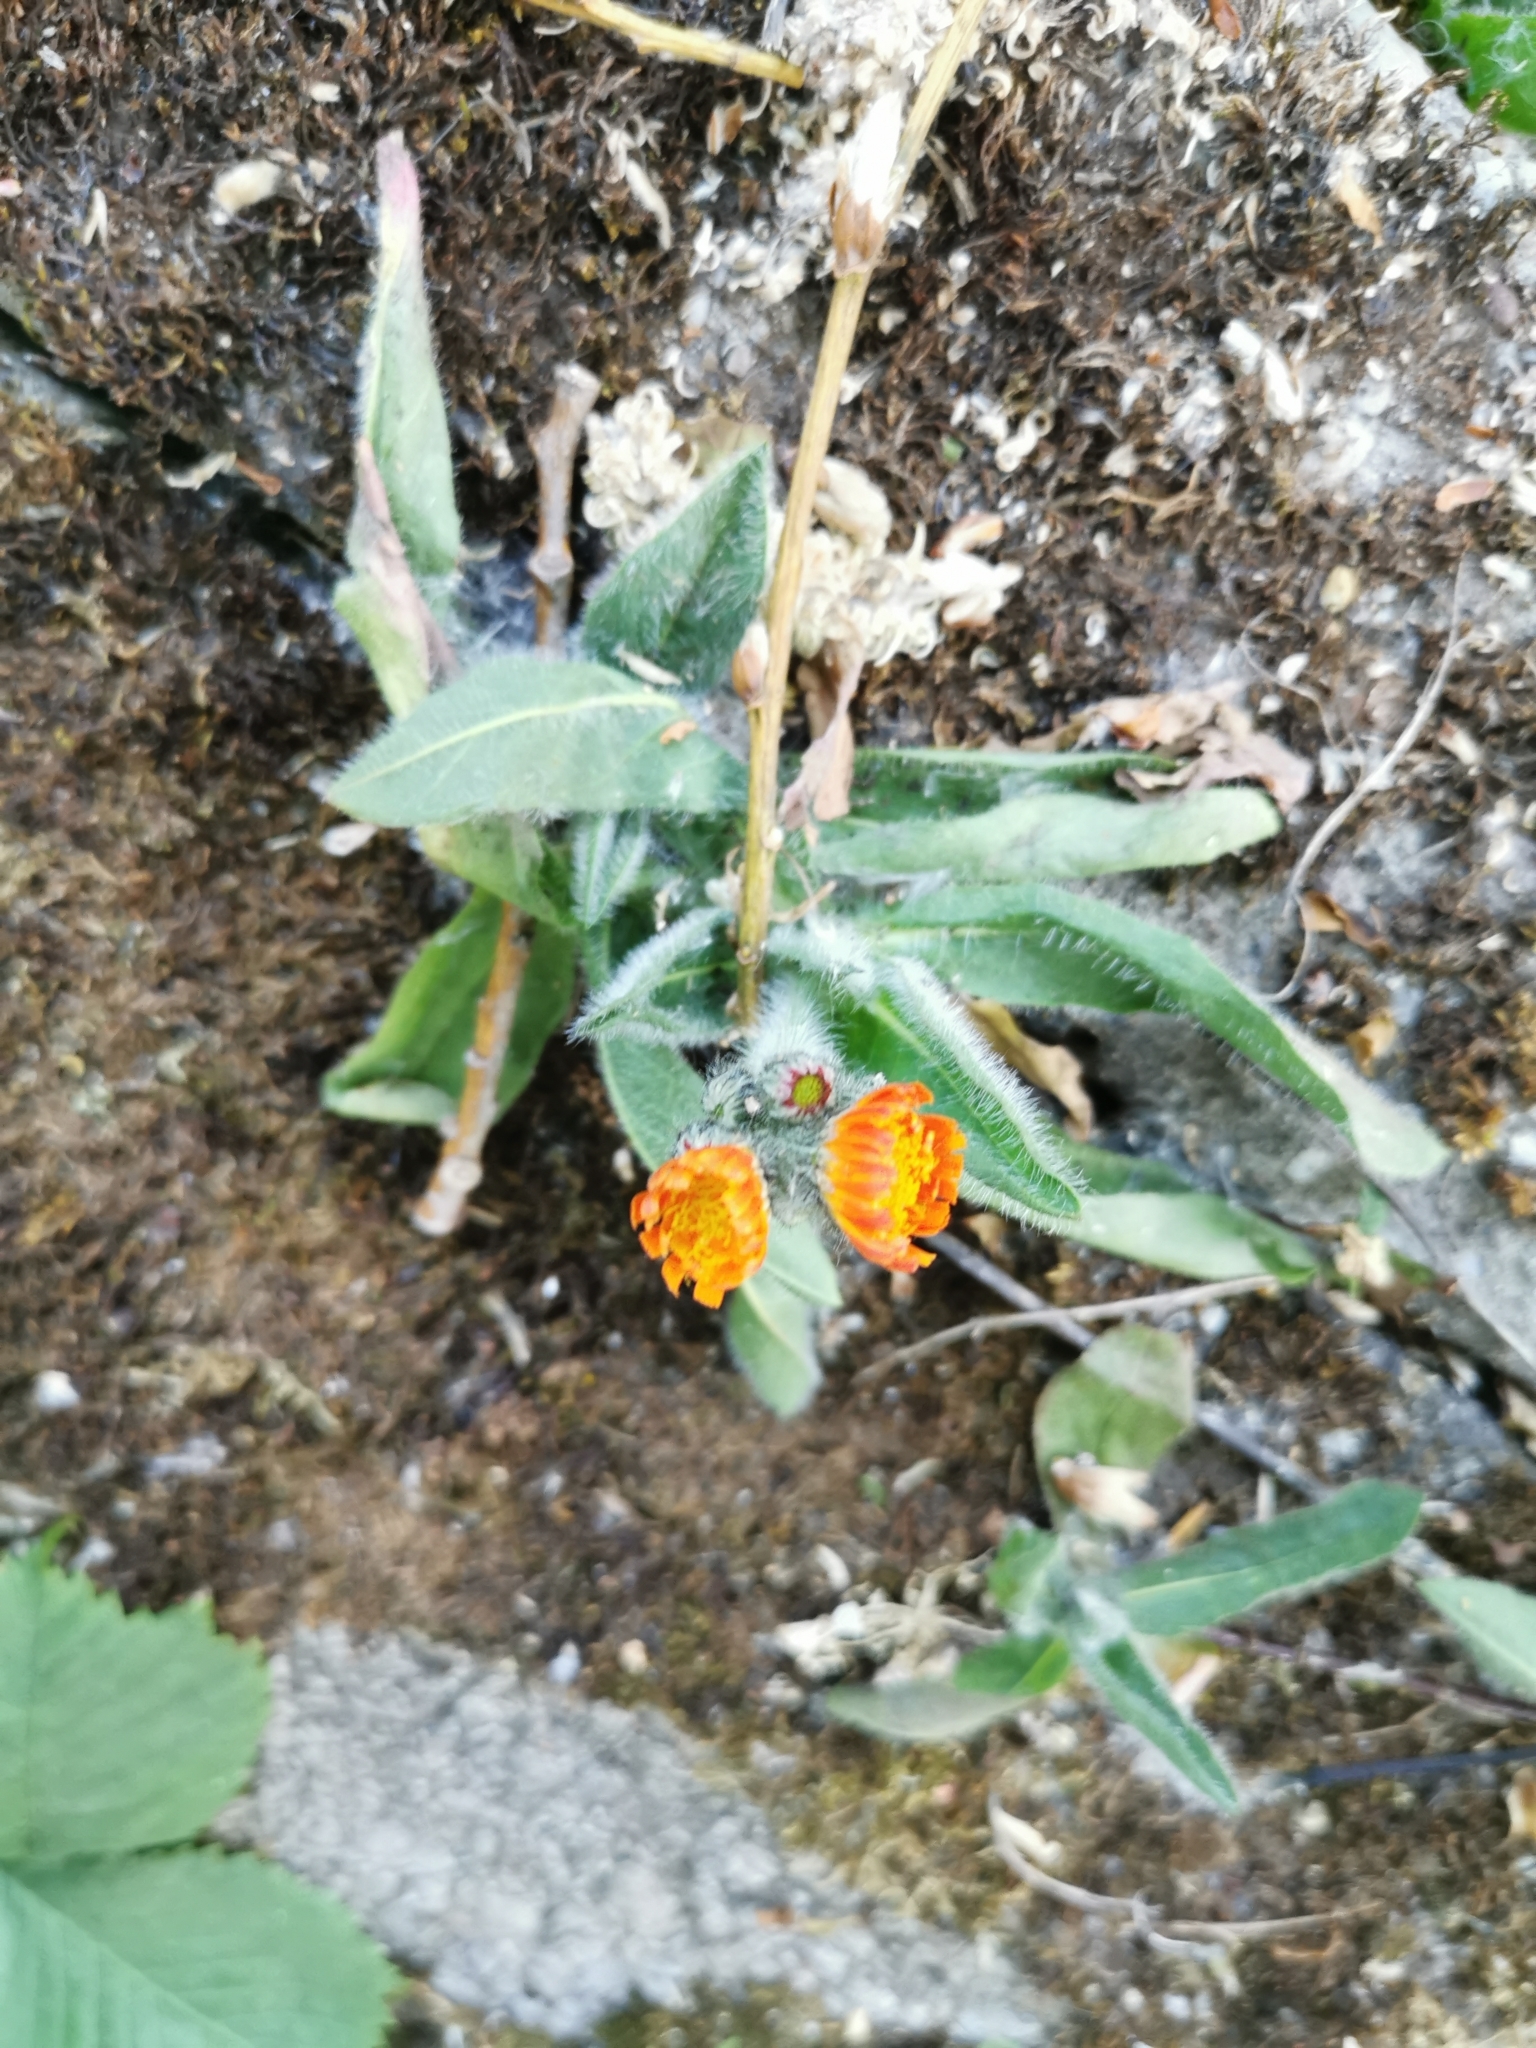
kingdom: Plantae
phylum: Tracheophyta
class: Magnoliopsida
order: Asterales
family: Asteraceae
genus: Pilosella
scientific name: Pilosella aurantiaca
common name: Fox-and-cubs
